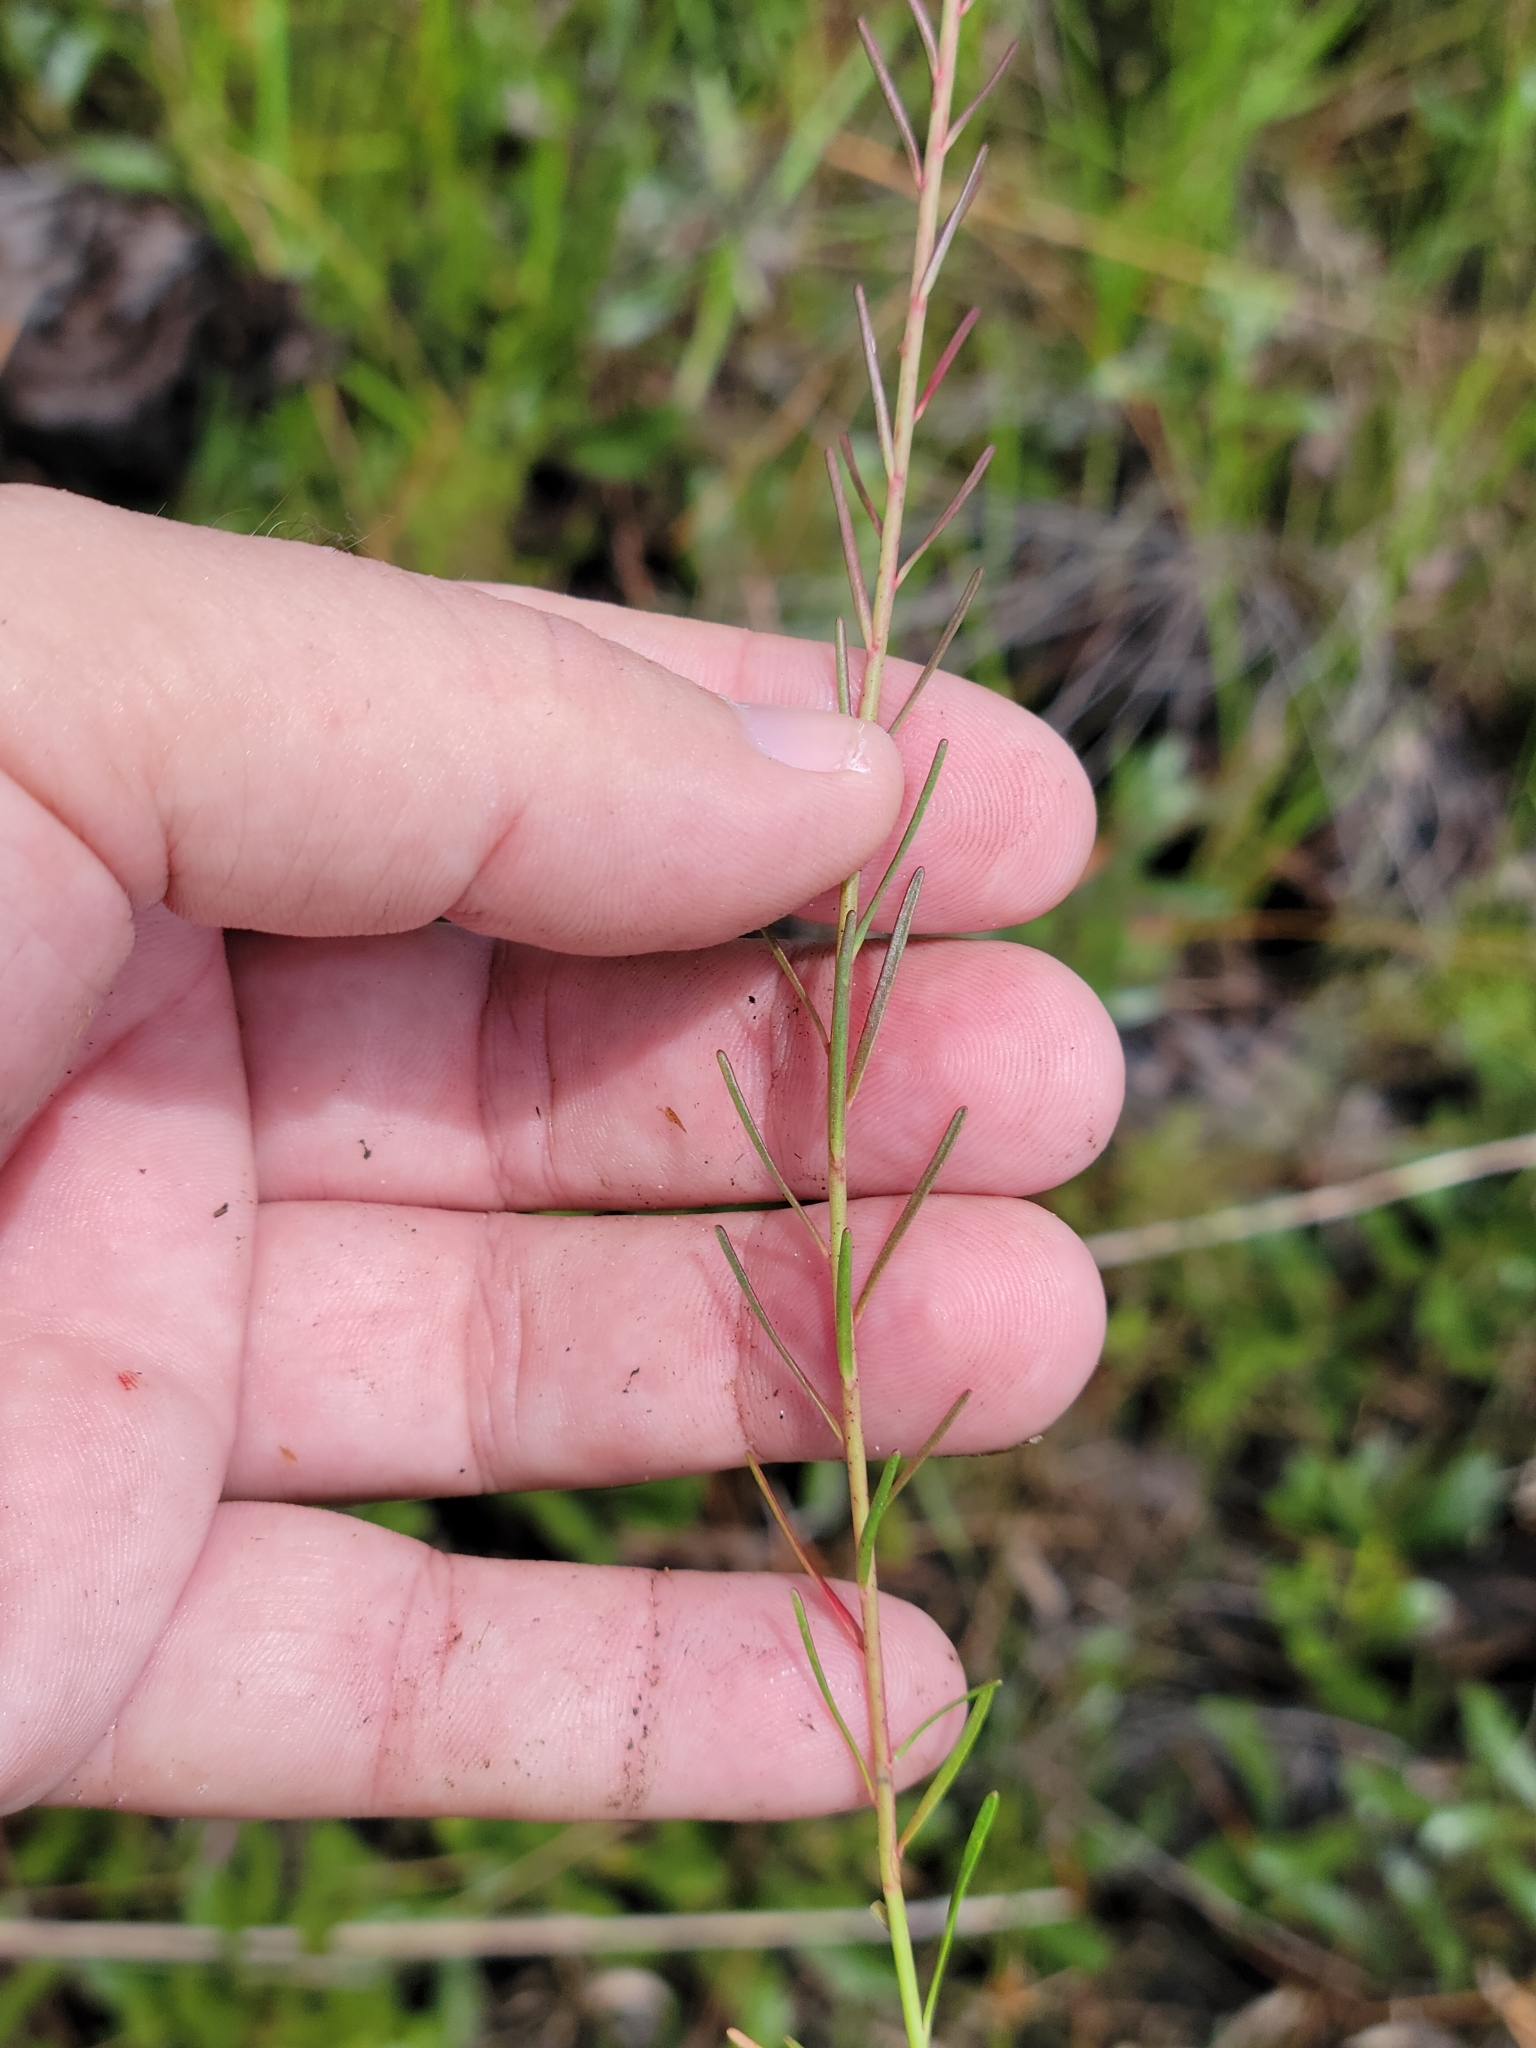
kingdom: Plantae
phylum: Tracheophyta
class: Magnoliopsida
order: Malpighiales
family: Euphorbiaceae
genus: Euphorbia
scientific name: Euphorbia polyphylla
